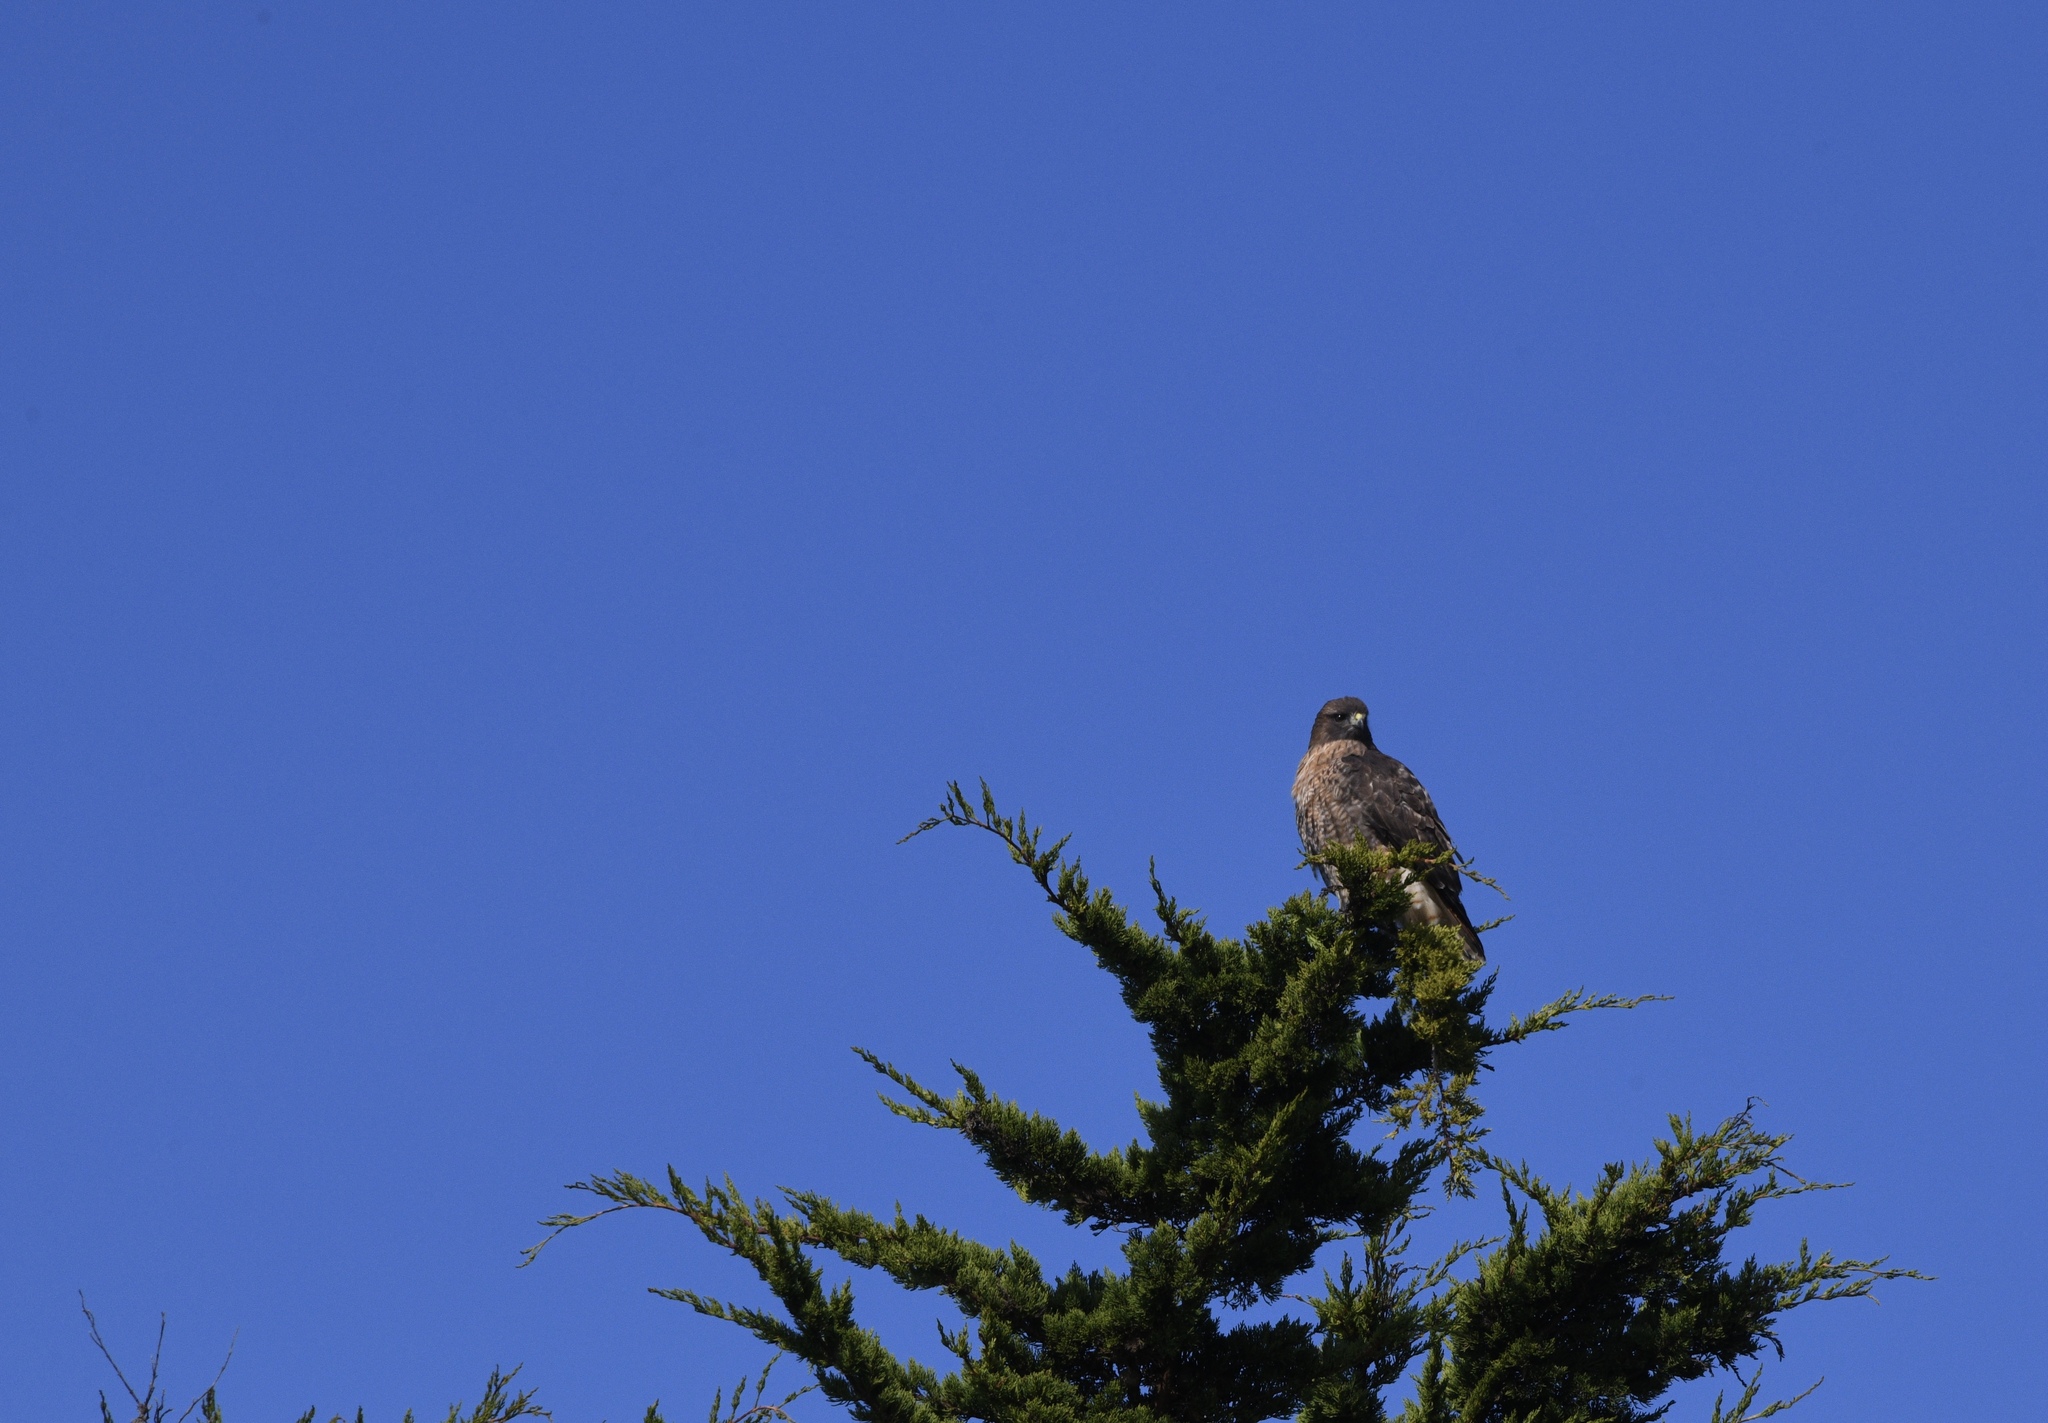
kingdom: Animalia
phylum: Chordata
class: Aves
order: Accipitriformes
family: Accipitridae
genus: Buteo
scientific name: Buteo jamaicensis
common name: Red-tailed hawk
